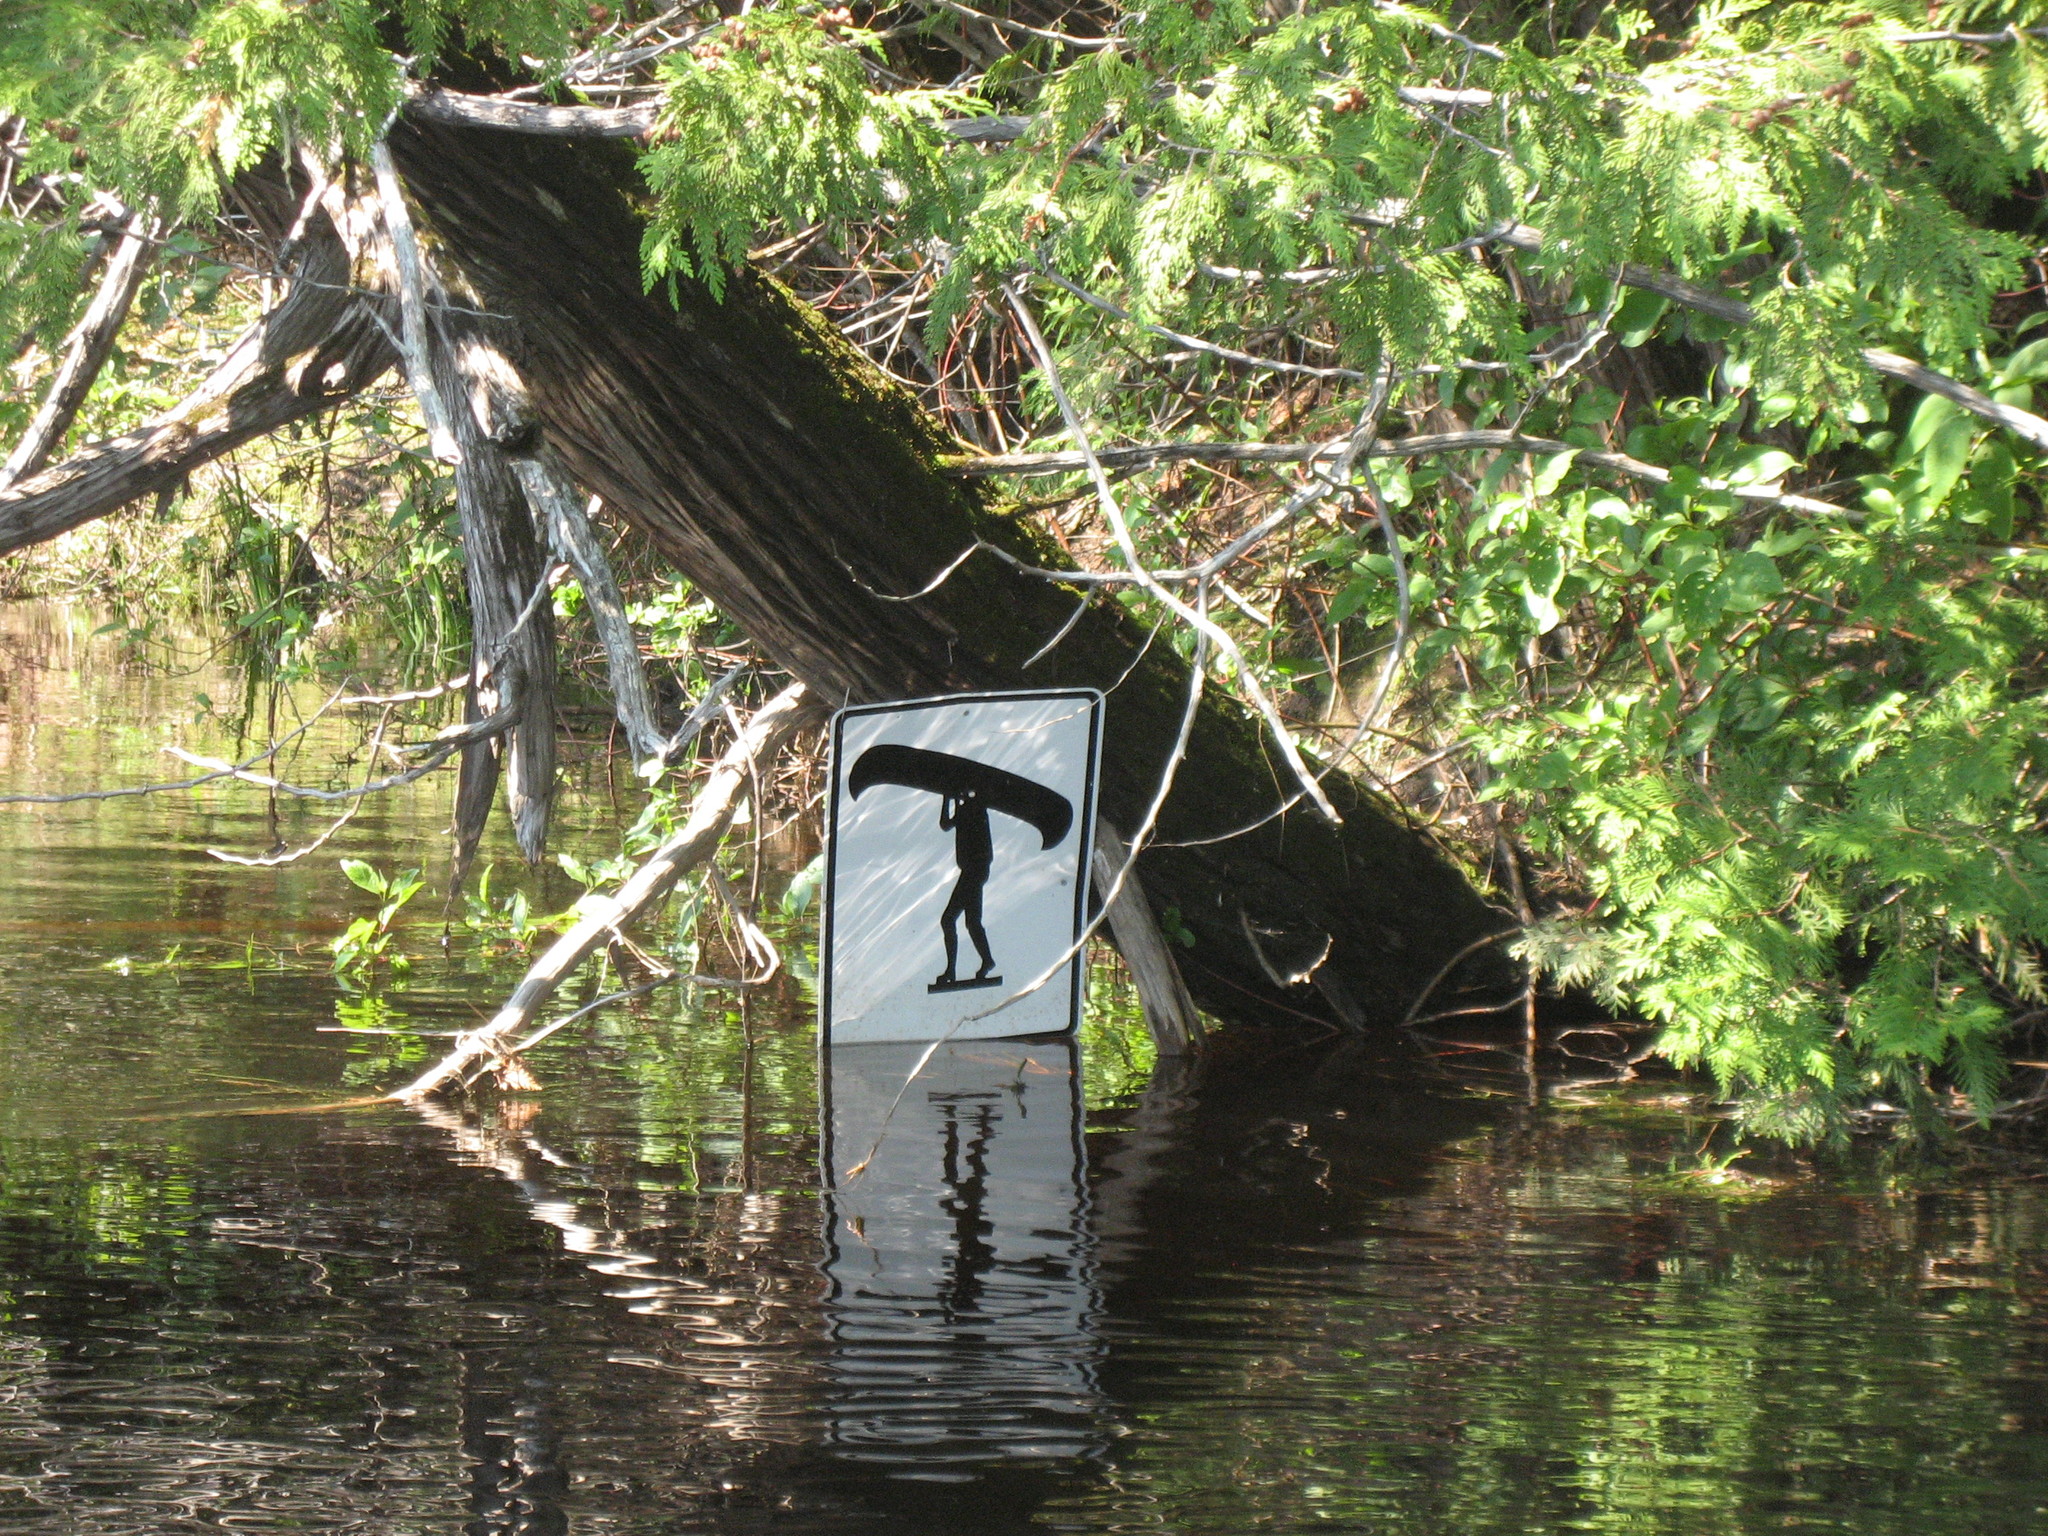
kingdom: Plantae
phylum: Tracheophyta
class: Pinopsida
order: Pinales
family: Cupressaceae
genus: Thuja
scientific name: Thuja occidentalis
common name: Northern white-cedar
